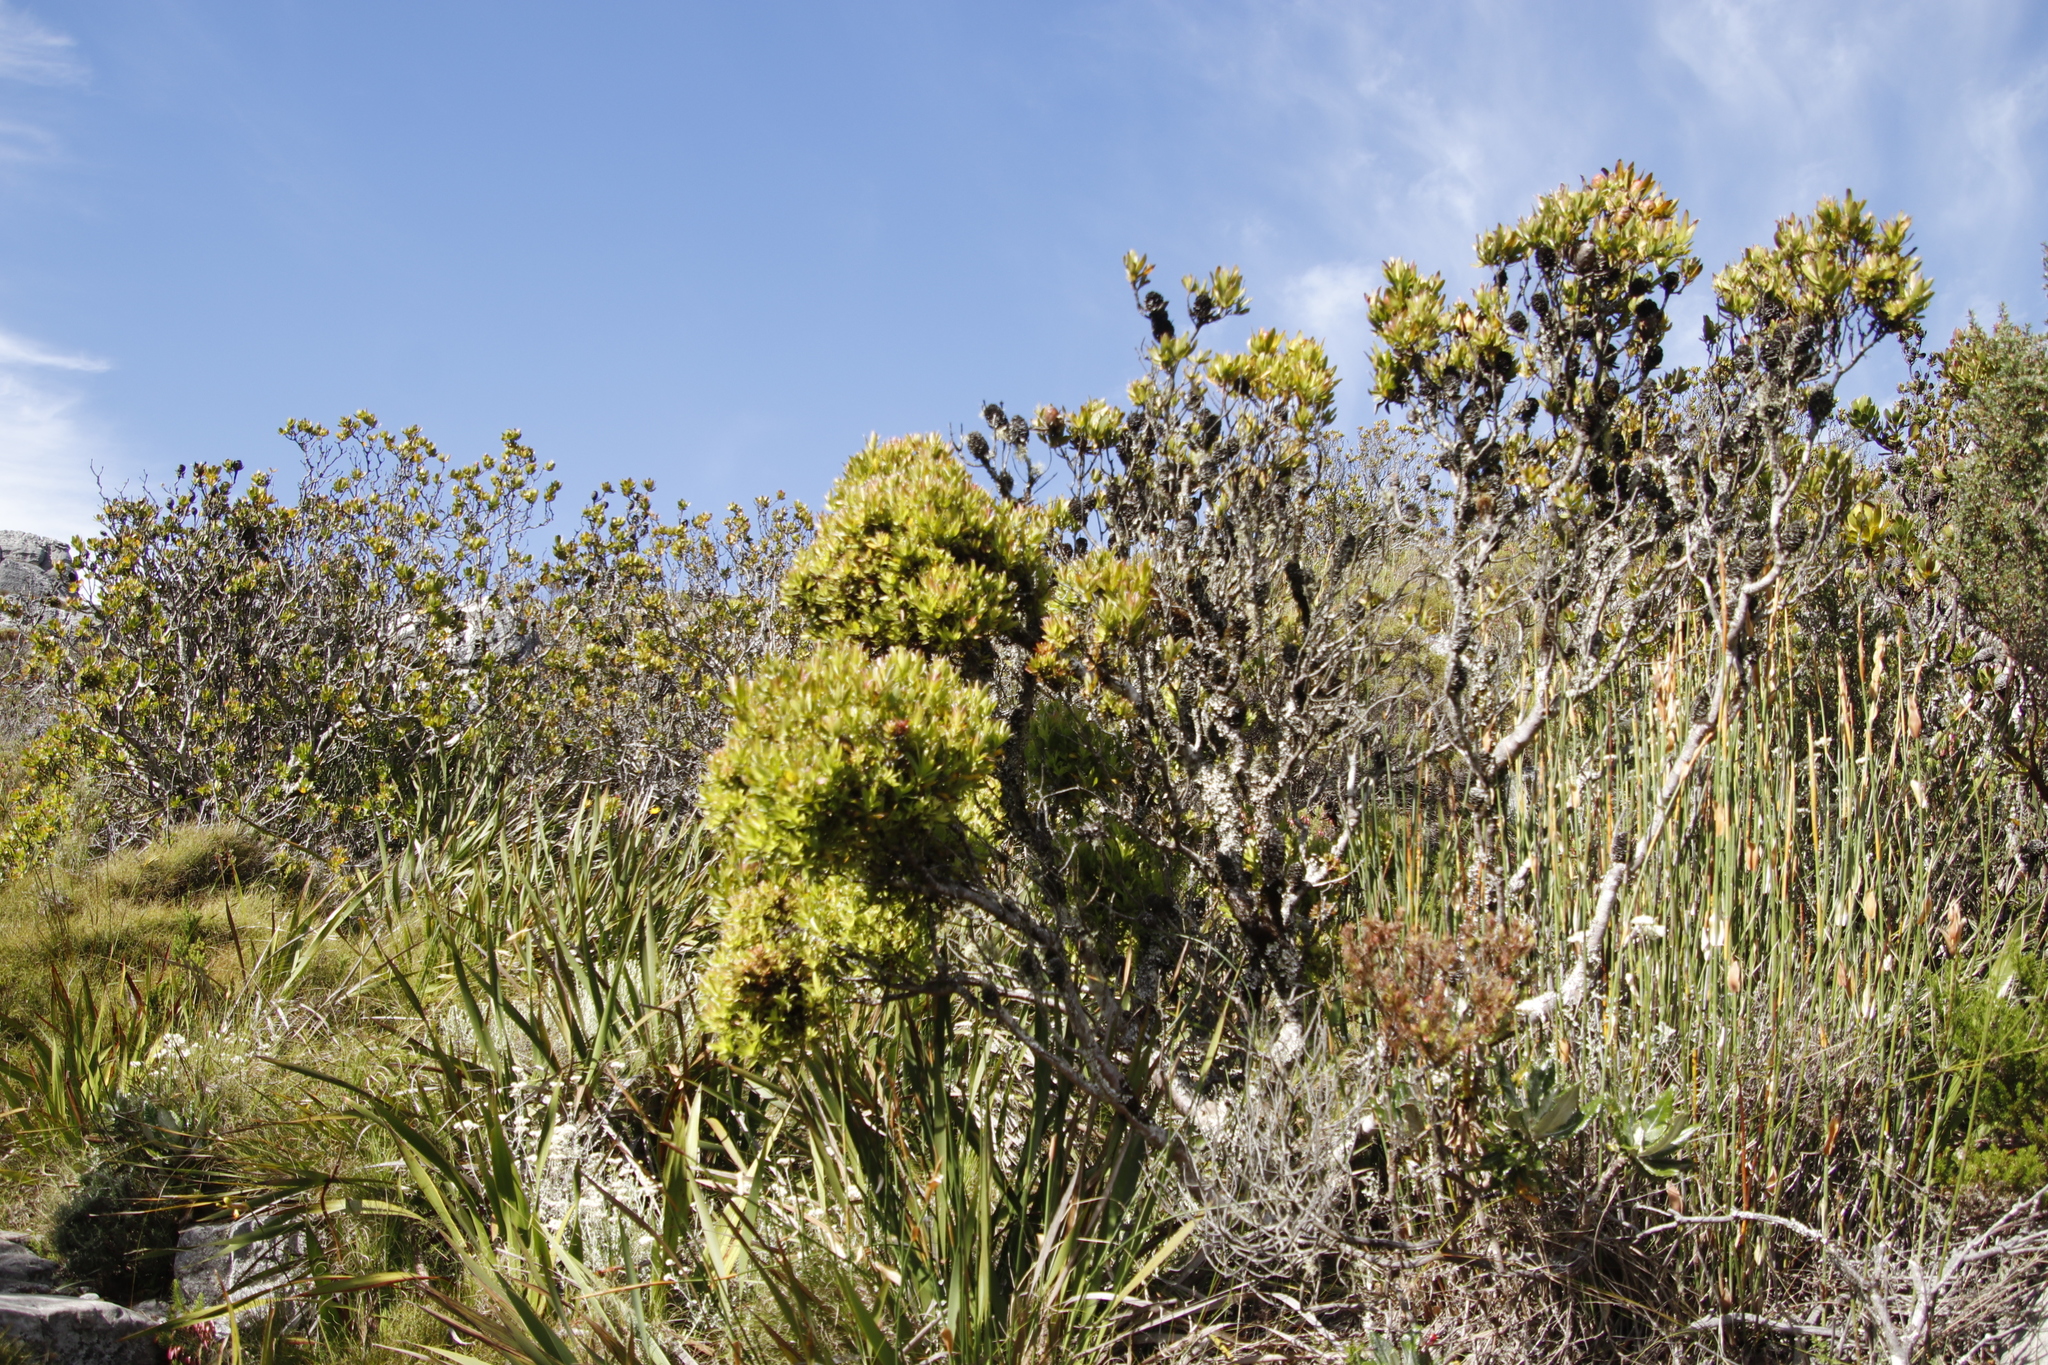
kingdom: Plantae
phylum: Tracheophyta
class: Magnoliopsida
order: Proteales
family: Proteaceae
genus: Leucadendron
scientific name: Leucadendron strobilinum
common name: Mountain rose
